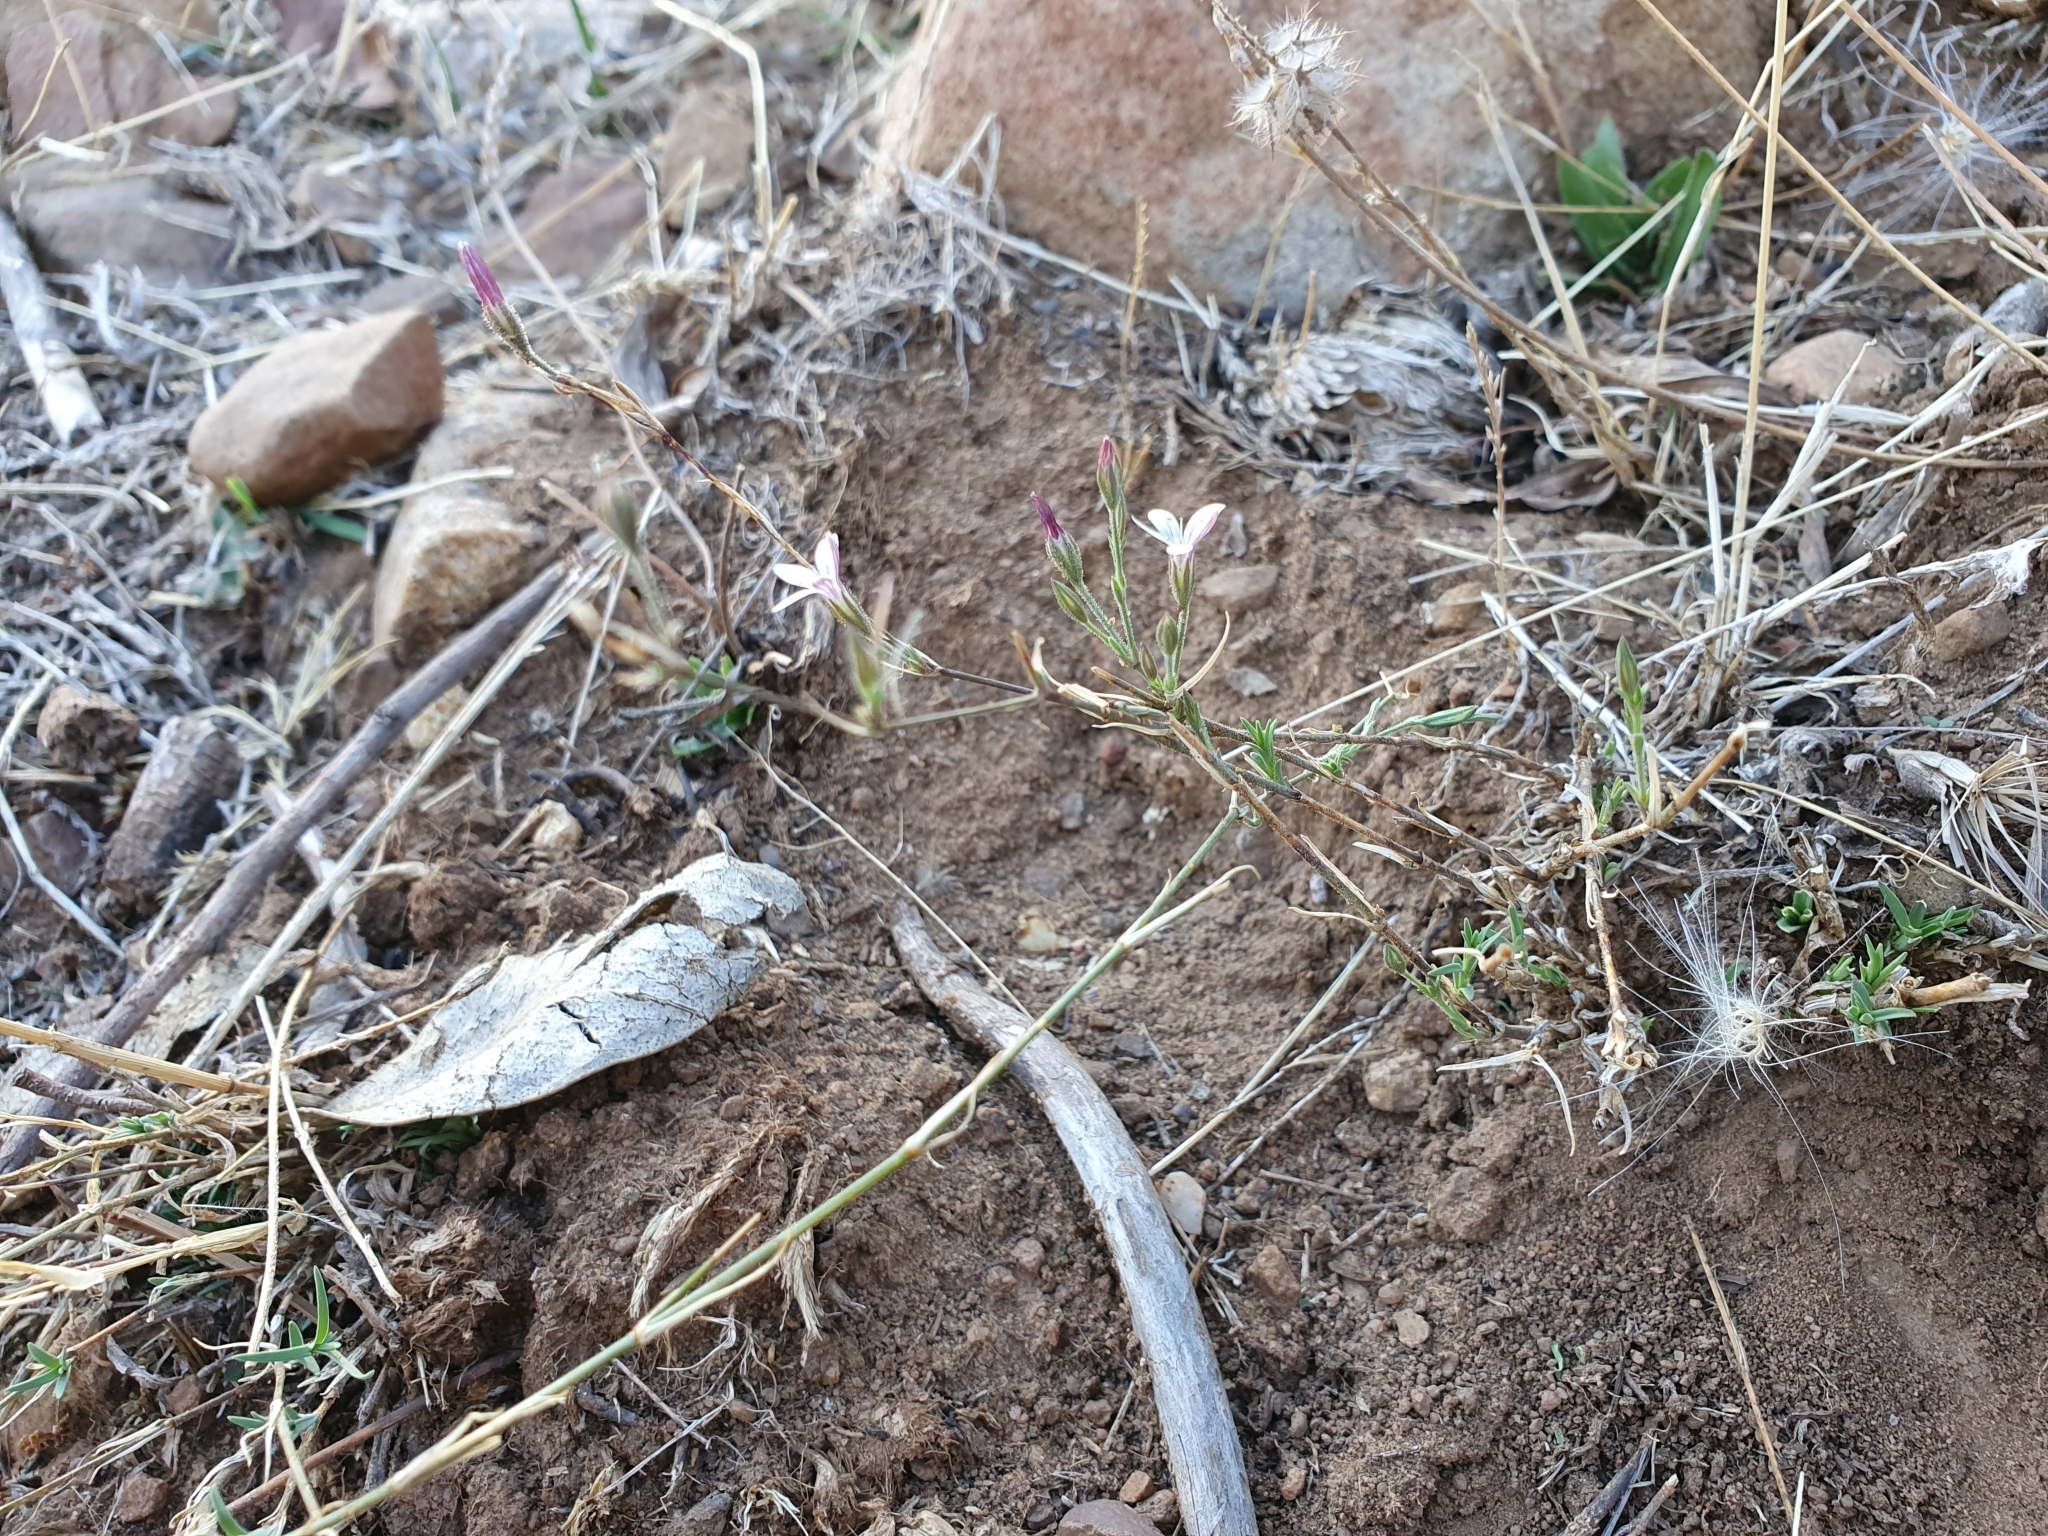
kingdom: Plantae
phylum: Tracheophyta
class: Magnoliopsida
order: Caryophyllales
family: Caryophyllaceae
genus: Dianthus
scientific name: Dianthus illyricus
